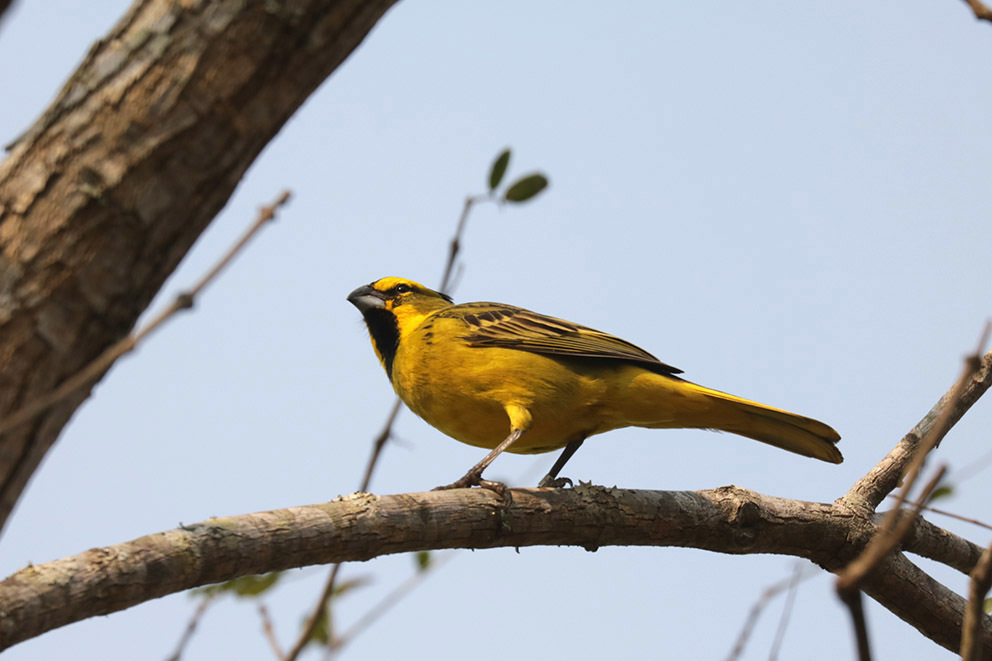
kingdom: Animalia
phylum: Chordata
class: Aves
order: Passeriformes
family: Thraupidae
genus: Gubernatrix
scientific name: Gubernatrix cristata
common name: Yellow cardinal
